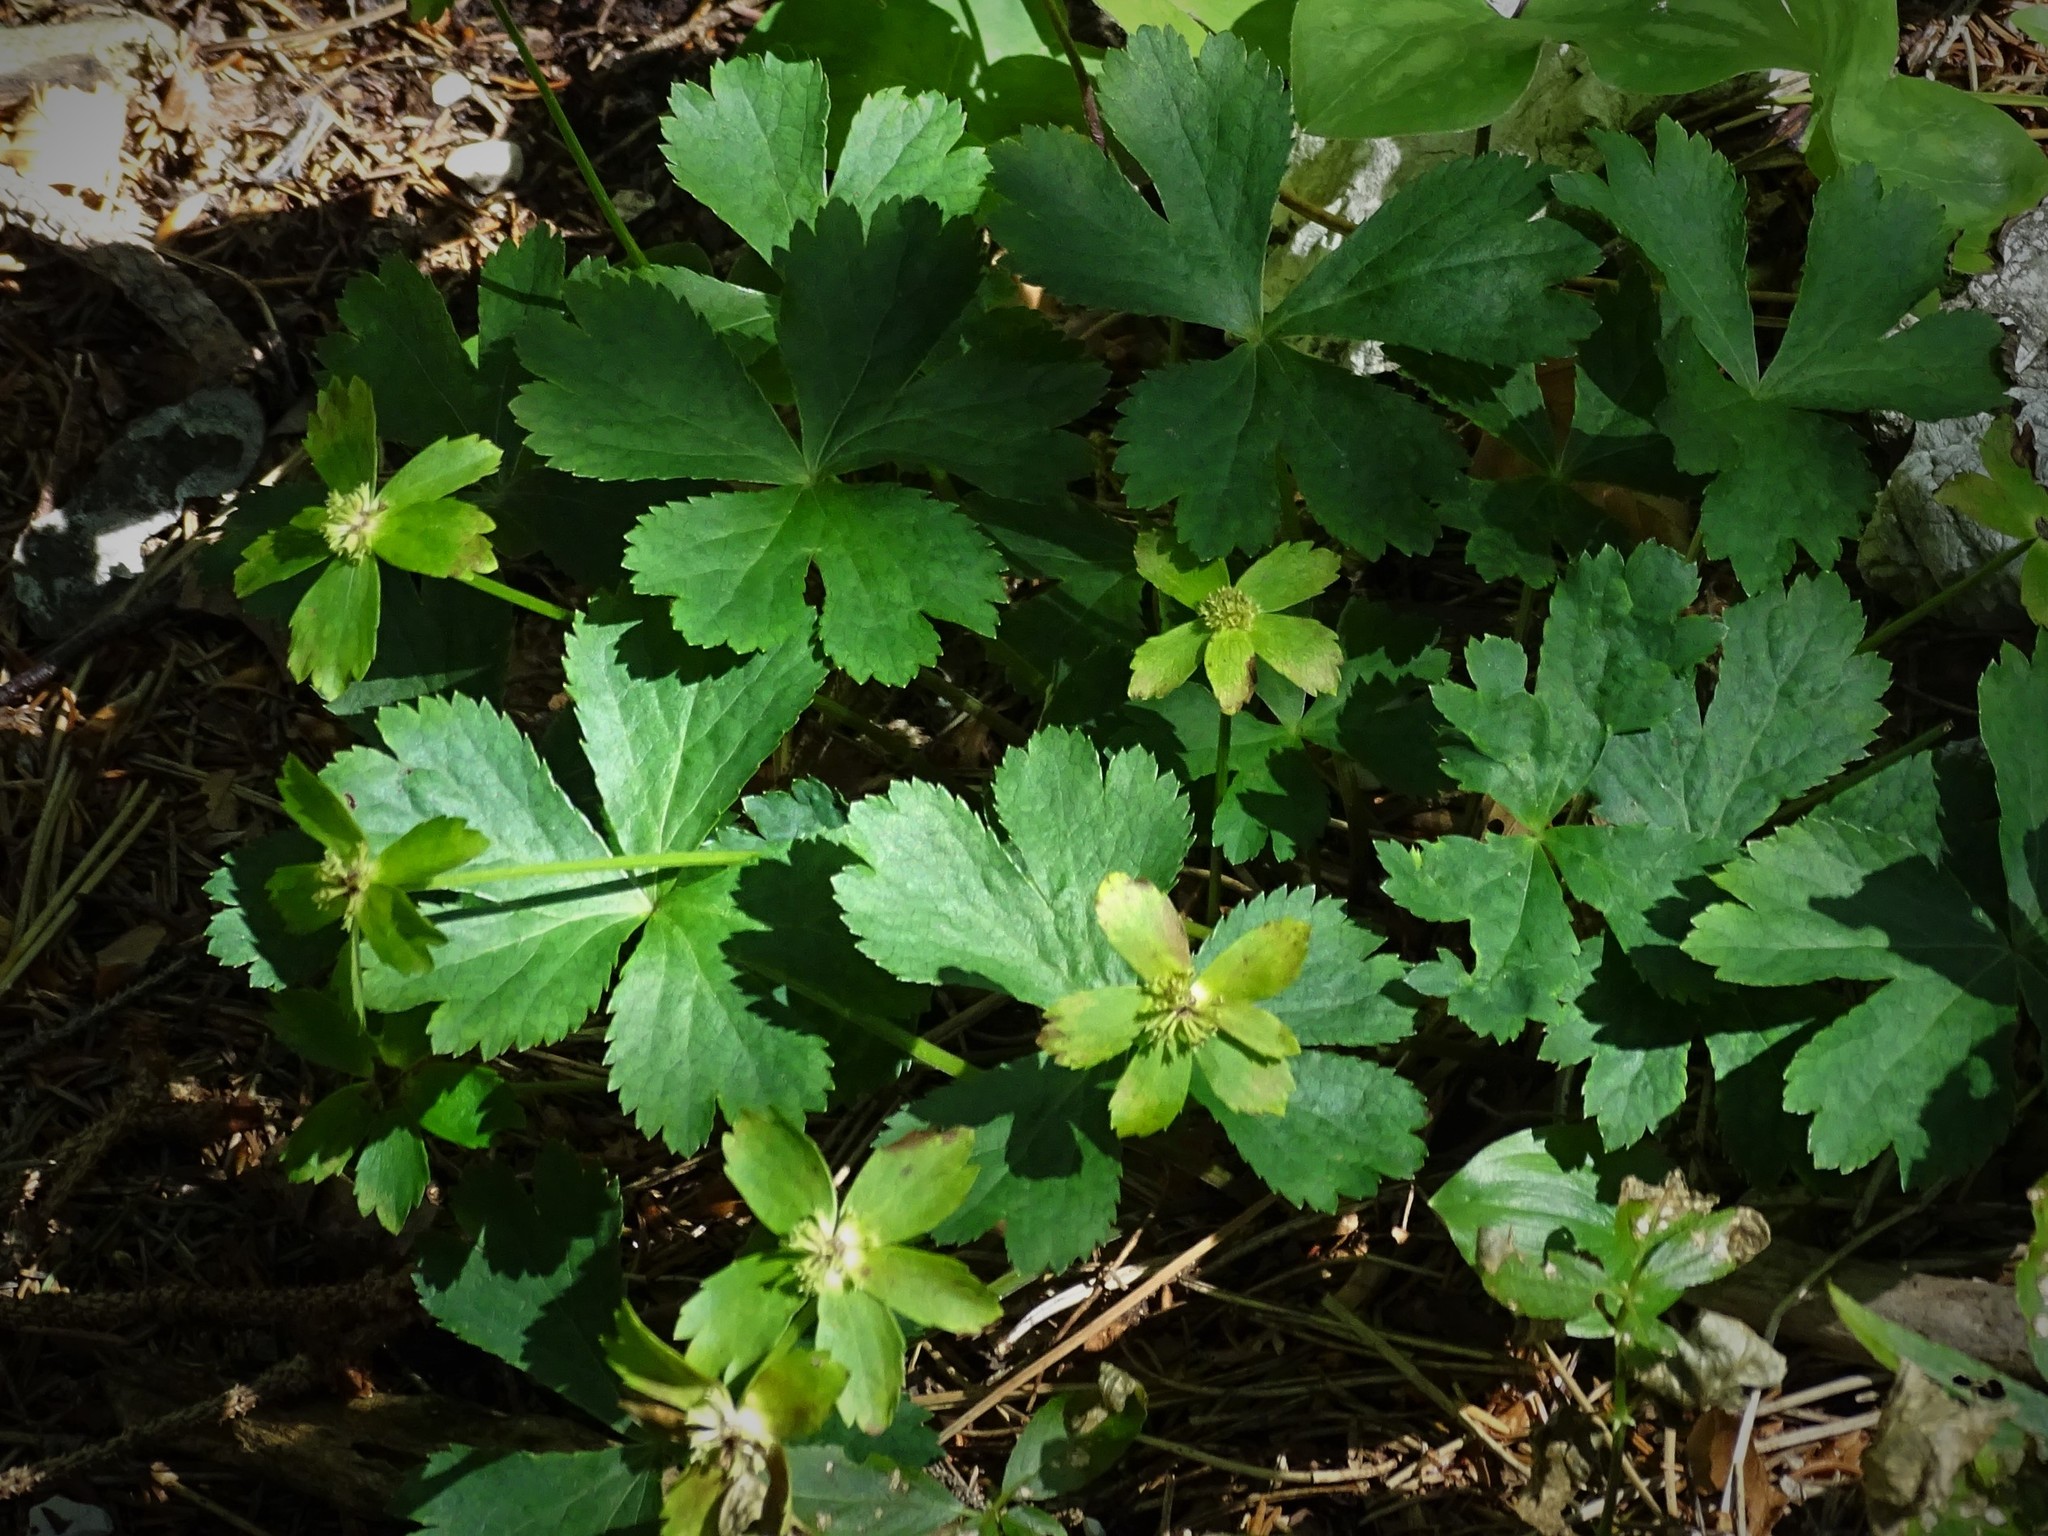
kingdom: Plantae
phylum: Tracheophyta
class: Magnoliopsida
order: Apiales
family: Apiaceae
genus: Sanicula
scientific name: Sanicula epipactis
